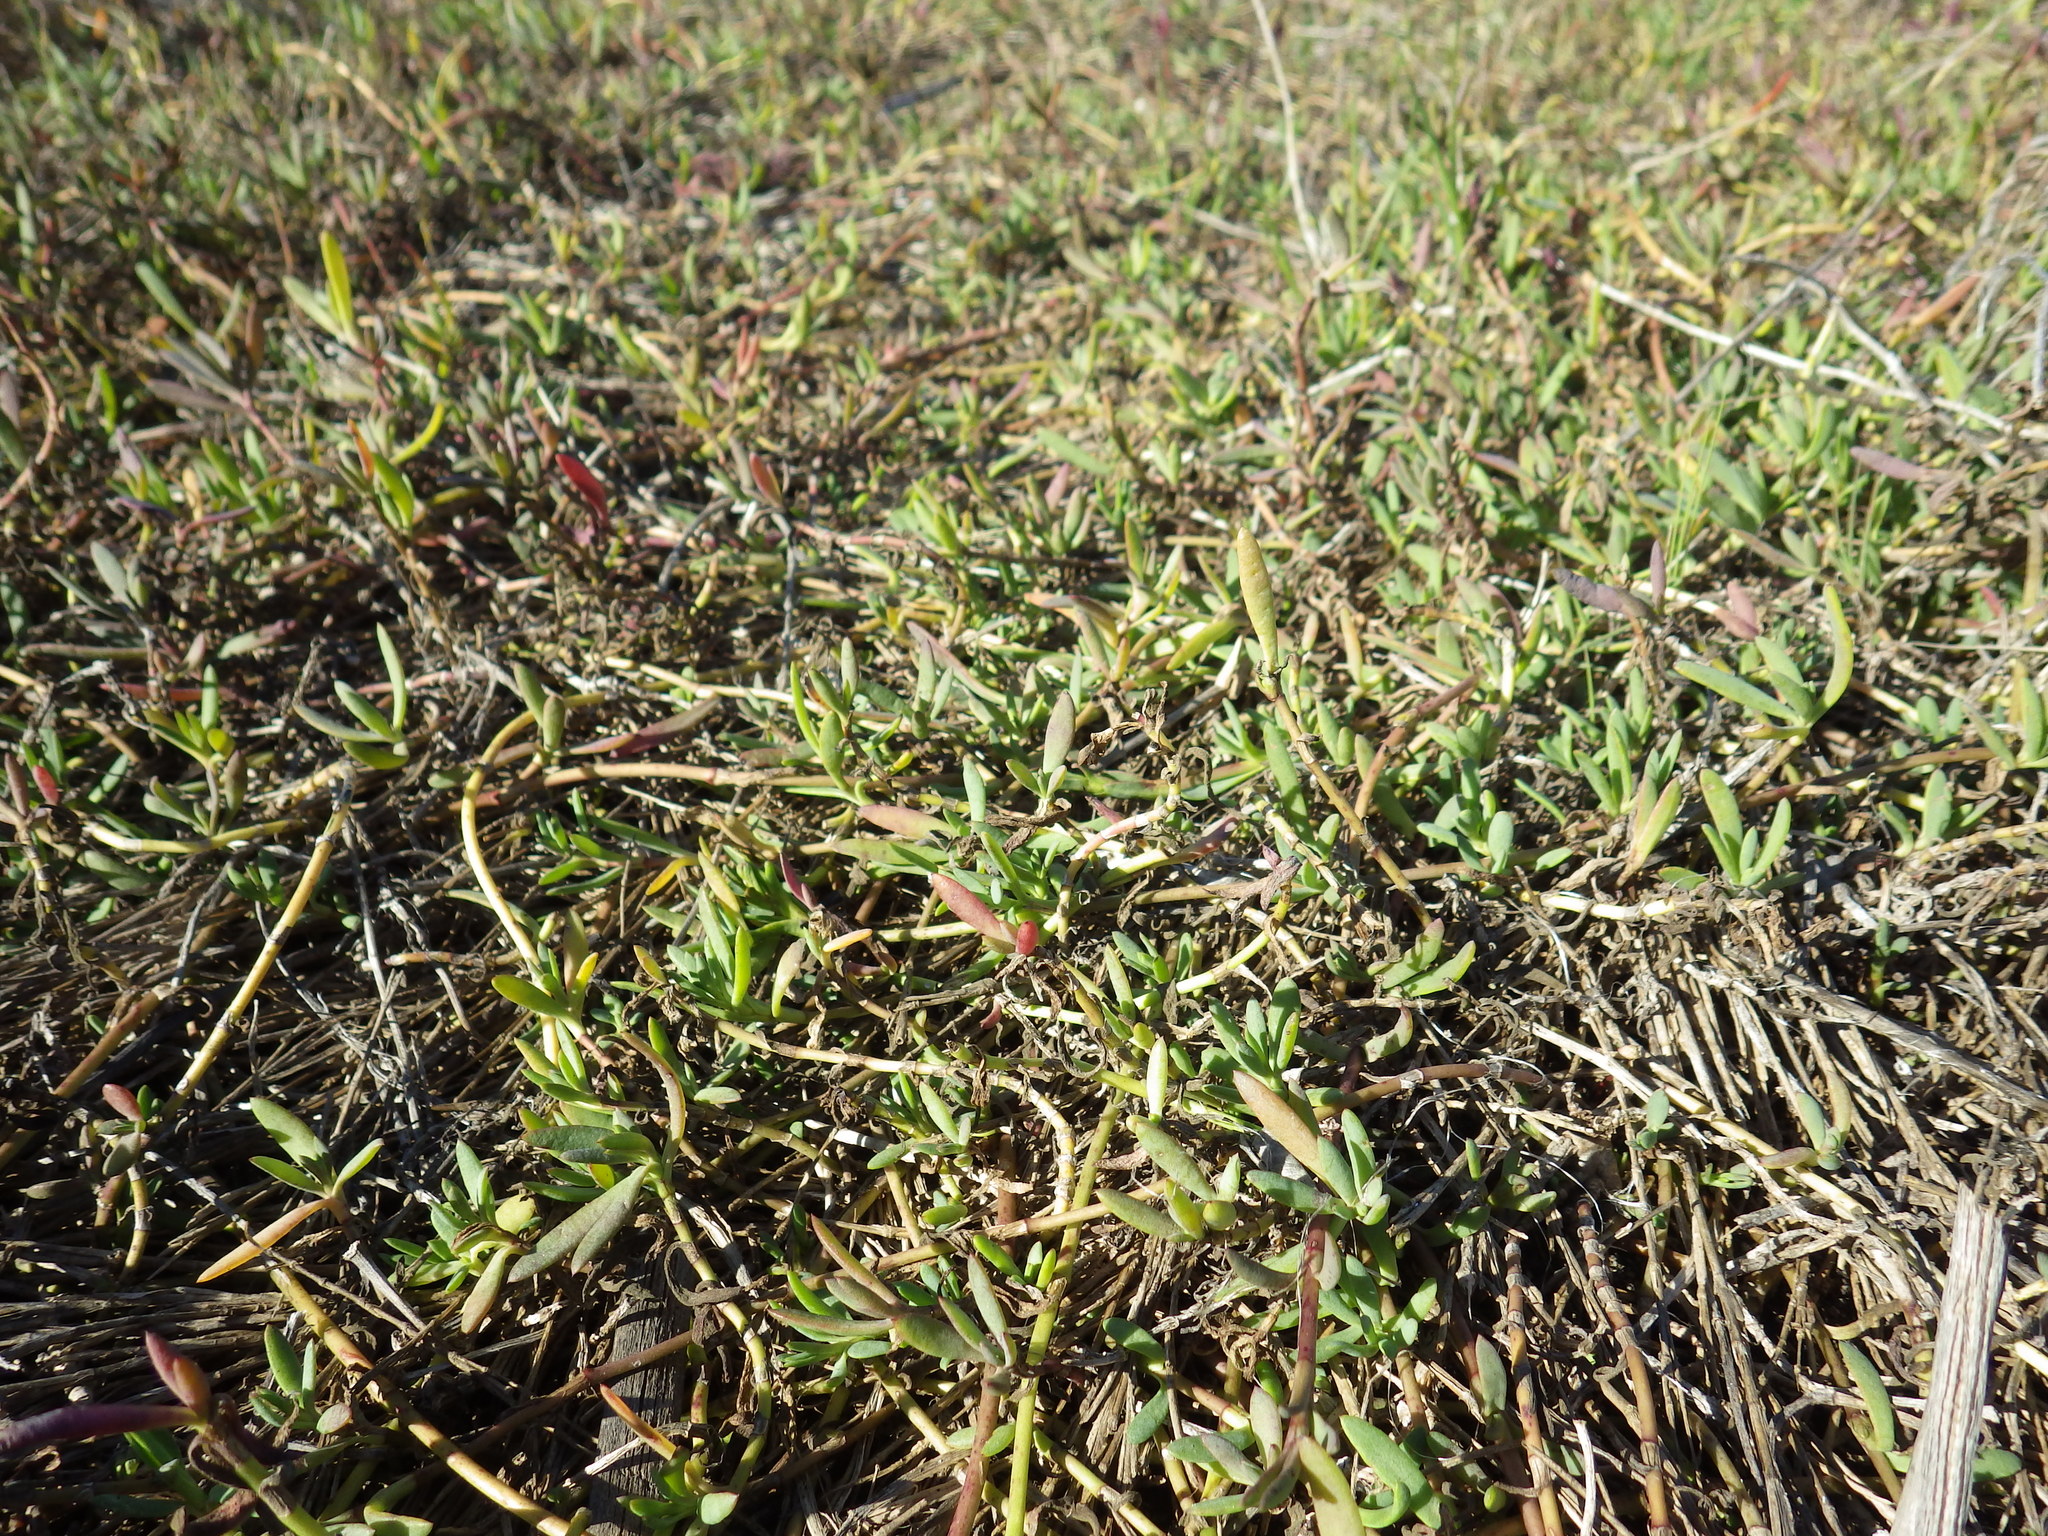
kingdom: Plantae
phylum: Tracheophyta
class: Magnoliopsida
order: Asterales
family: Asteraceae
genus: Jaumea
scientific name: Jaumea carnosa
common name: Fleshy jaumea
